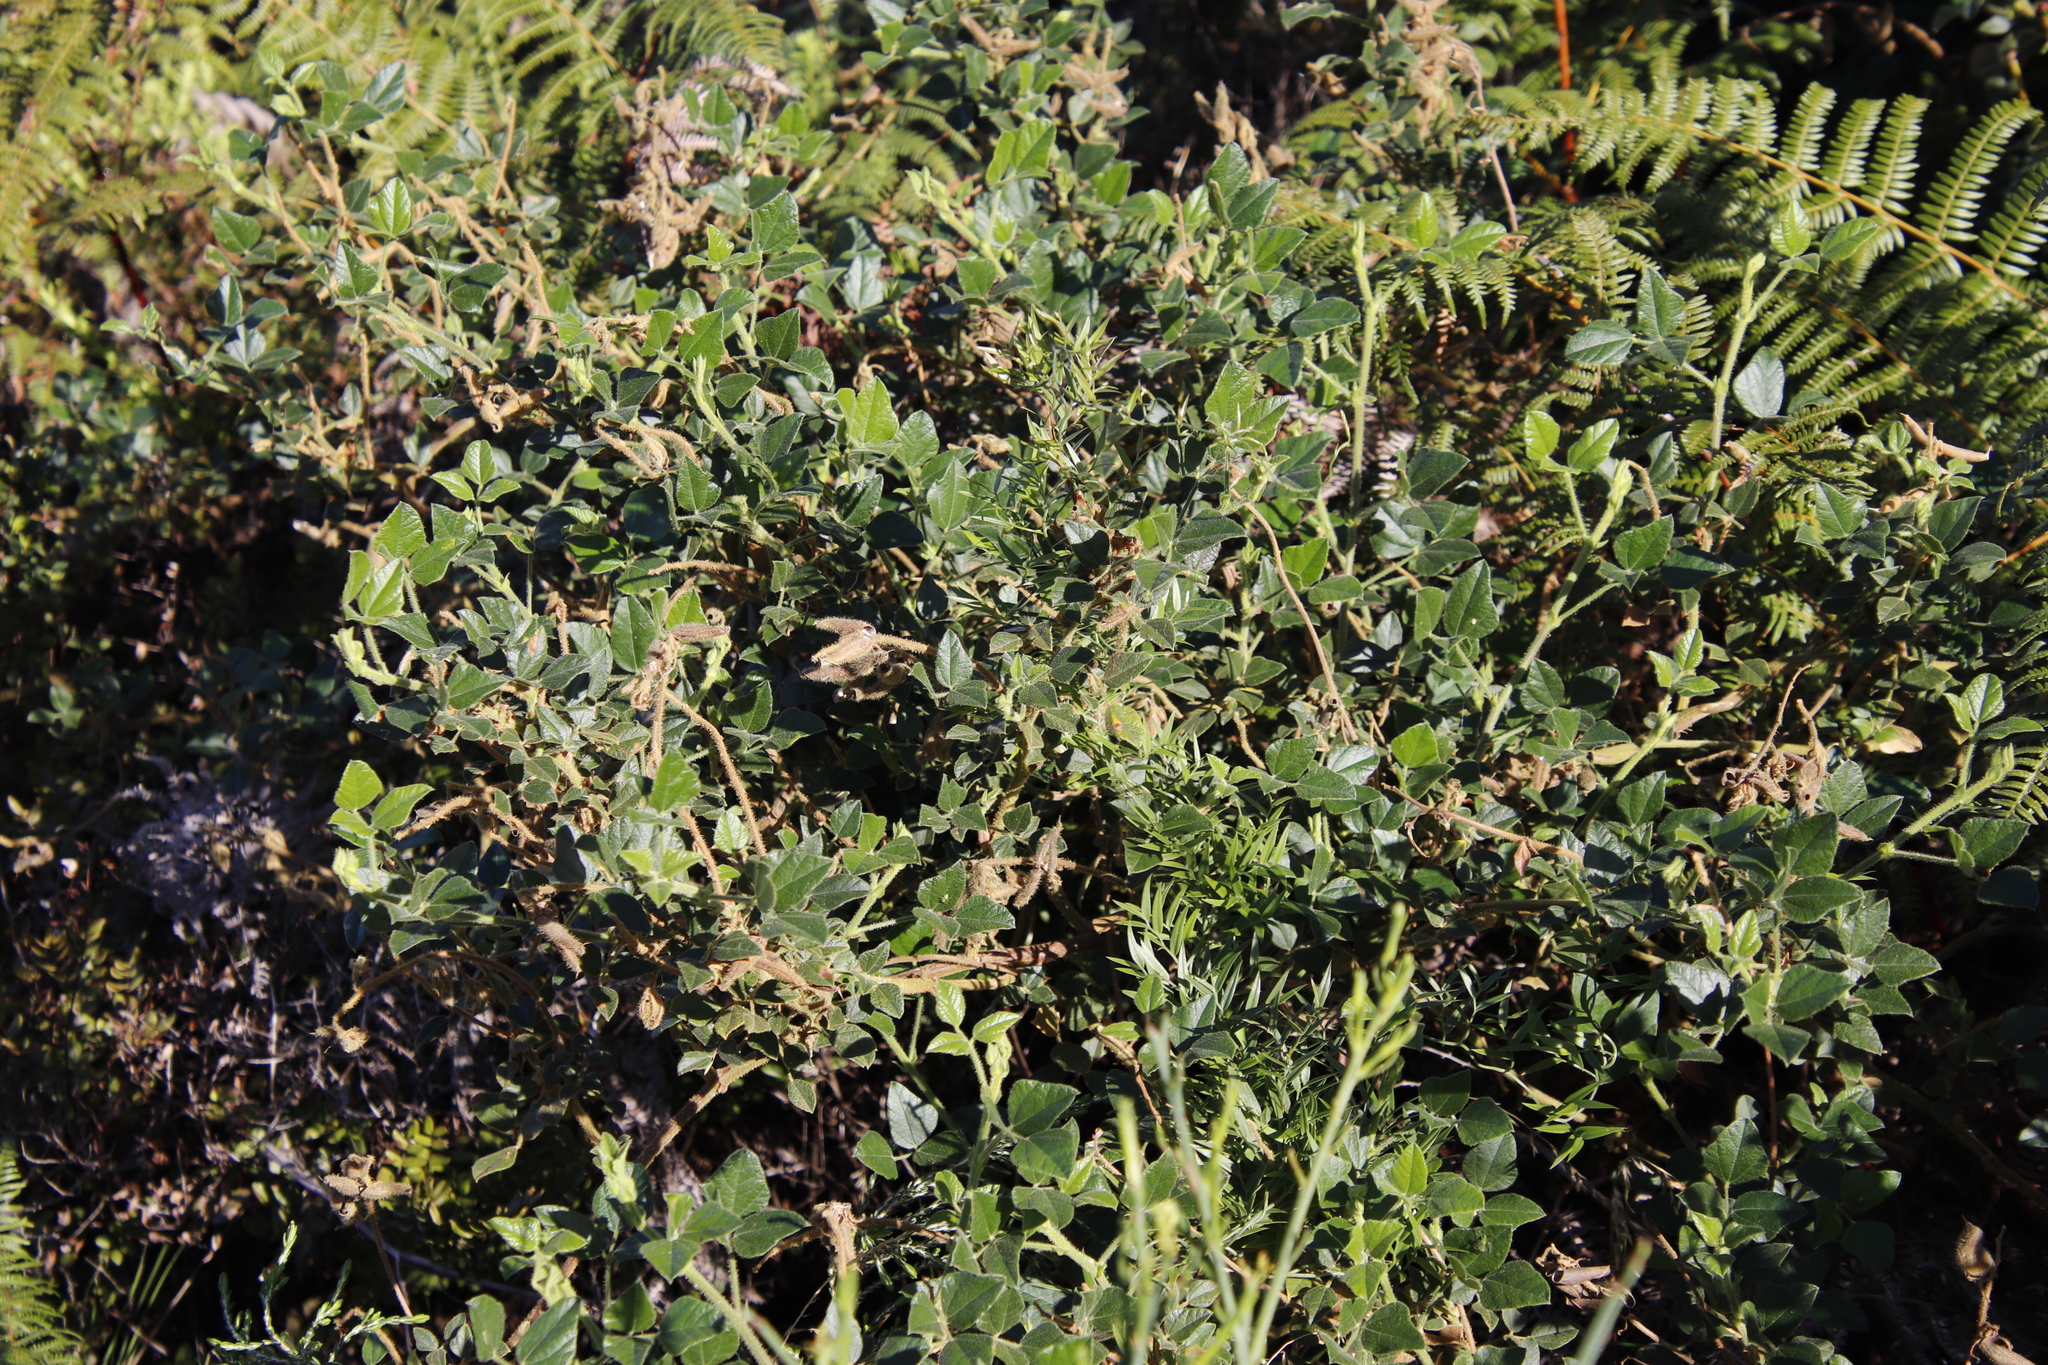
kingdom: Plantae
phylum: Tracheophyta
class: Magnoliopsida
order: Fabales
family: Fabaceae
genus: Bolusafra
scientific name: Bolusafra bituminosa
